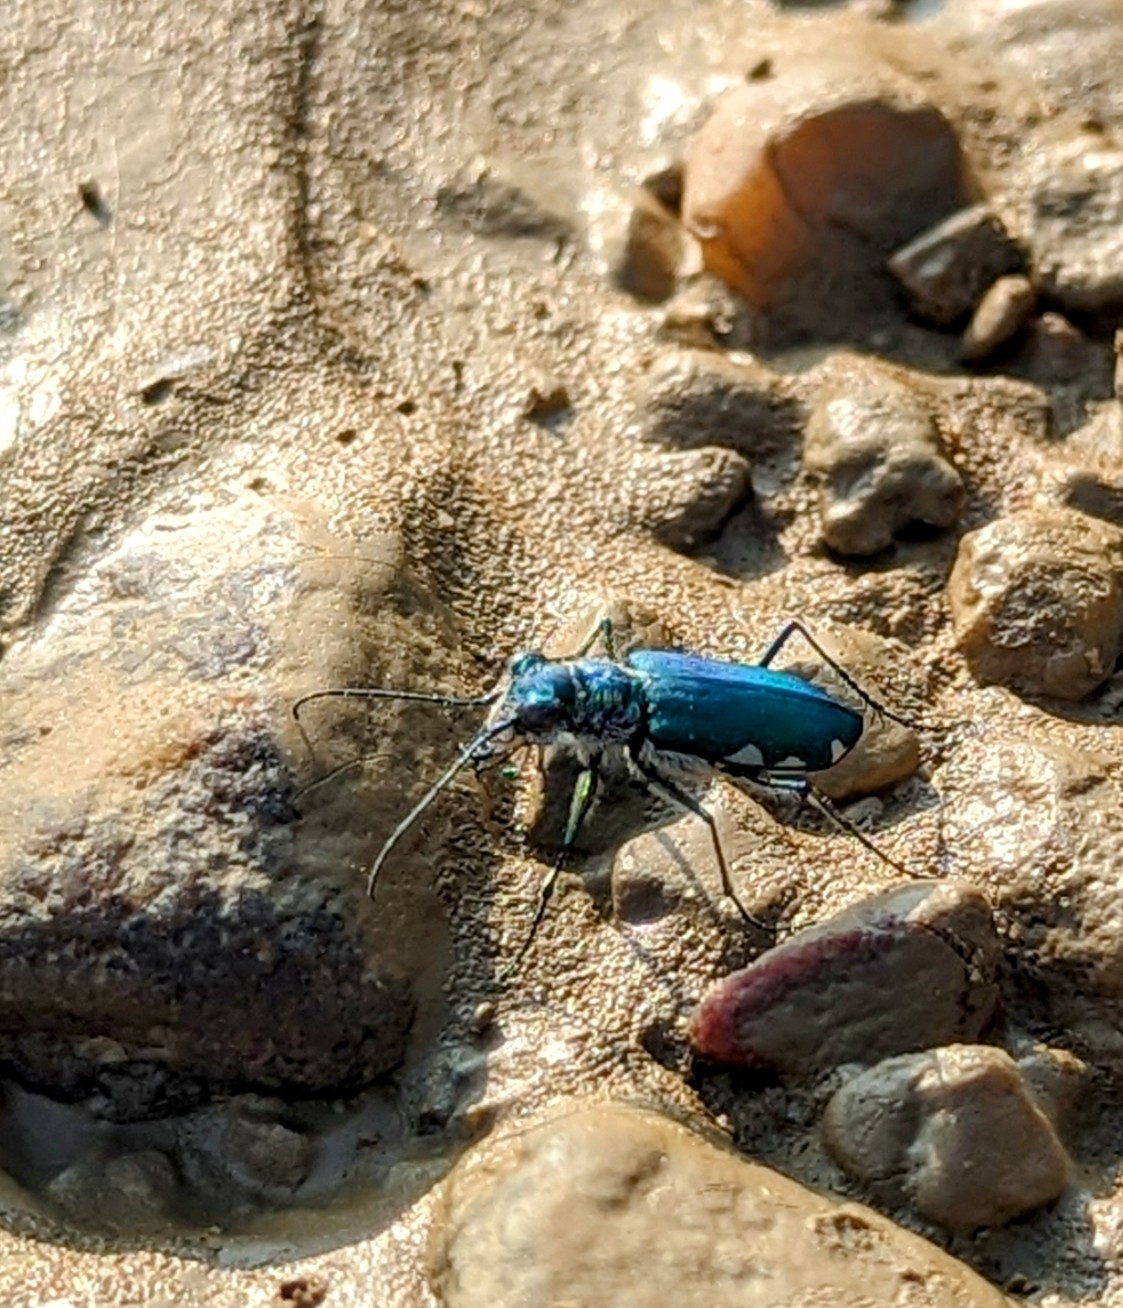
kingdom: Animalia
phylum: Arthropoda
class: Insecta
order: Coleoptera
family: Carabidae
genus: Cicindela
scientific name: Cicindela chloris
